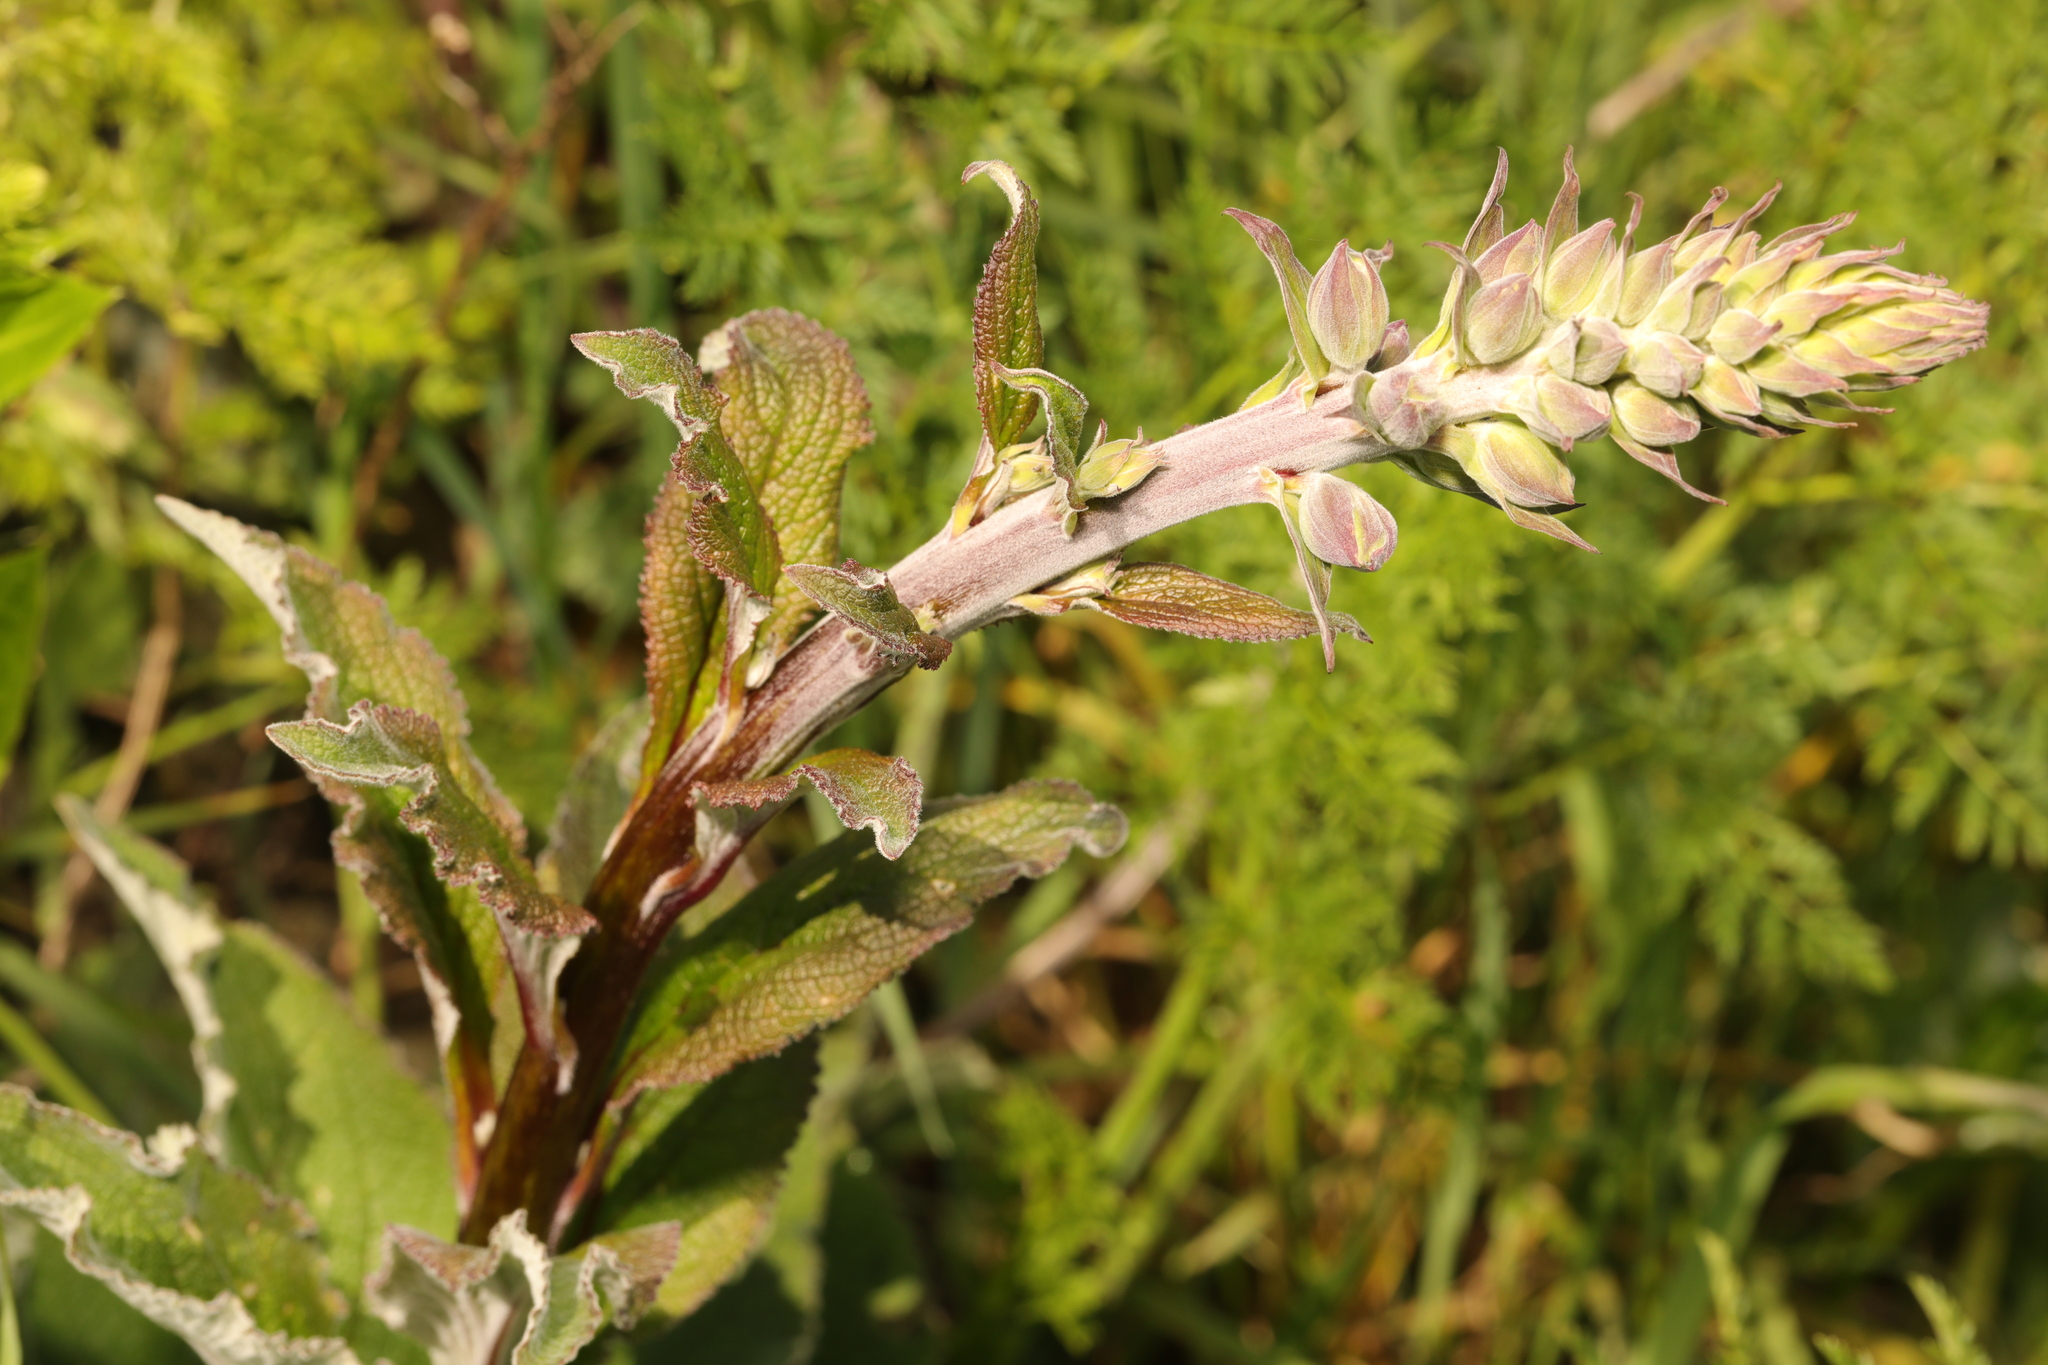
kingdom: Plantae
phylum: Tracheophyta
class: Magnoliopsida
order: Lamiales
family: Plantaginaceae
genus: Digitalis
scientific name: Digitalis purpurea
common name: Foxglove
